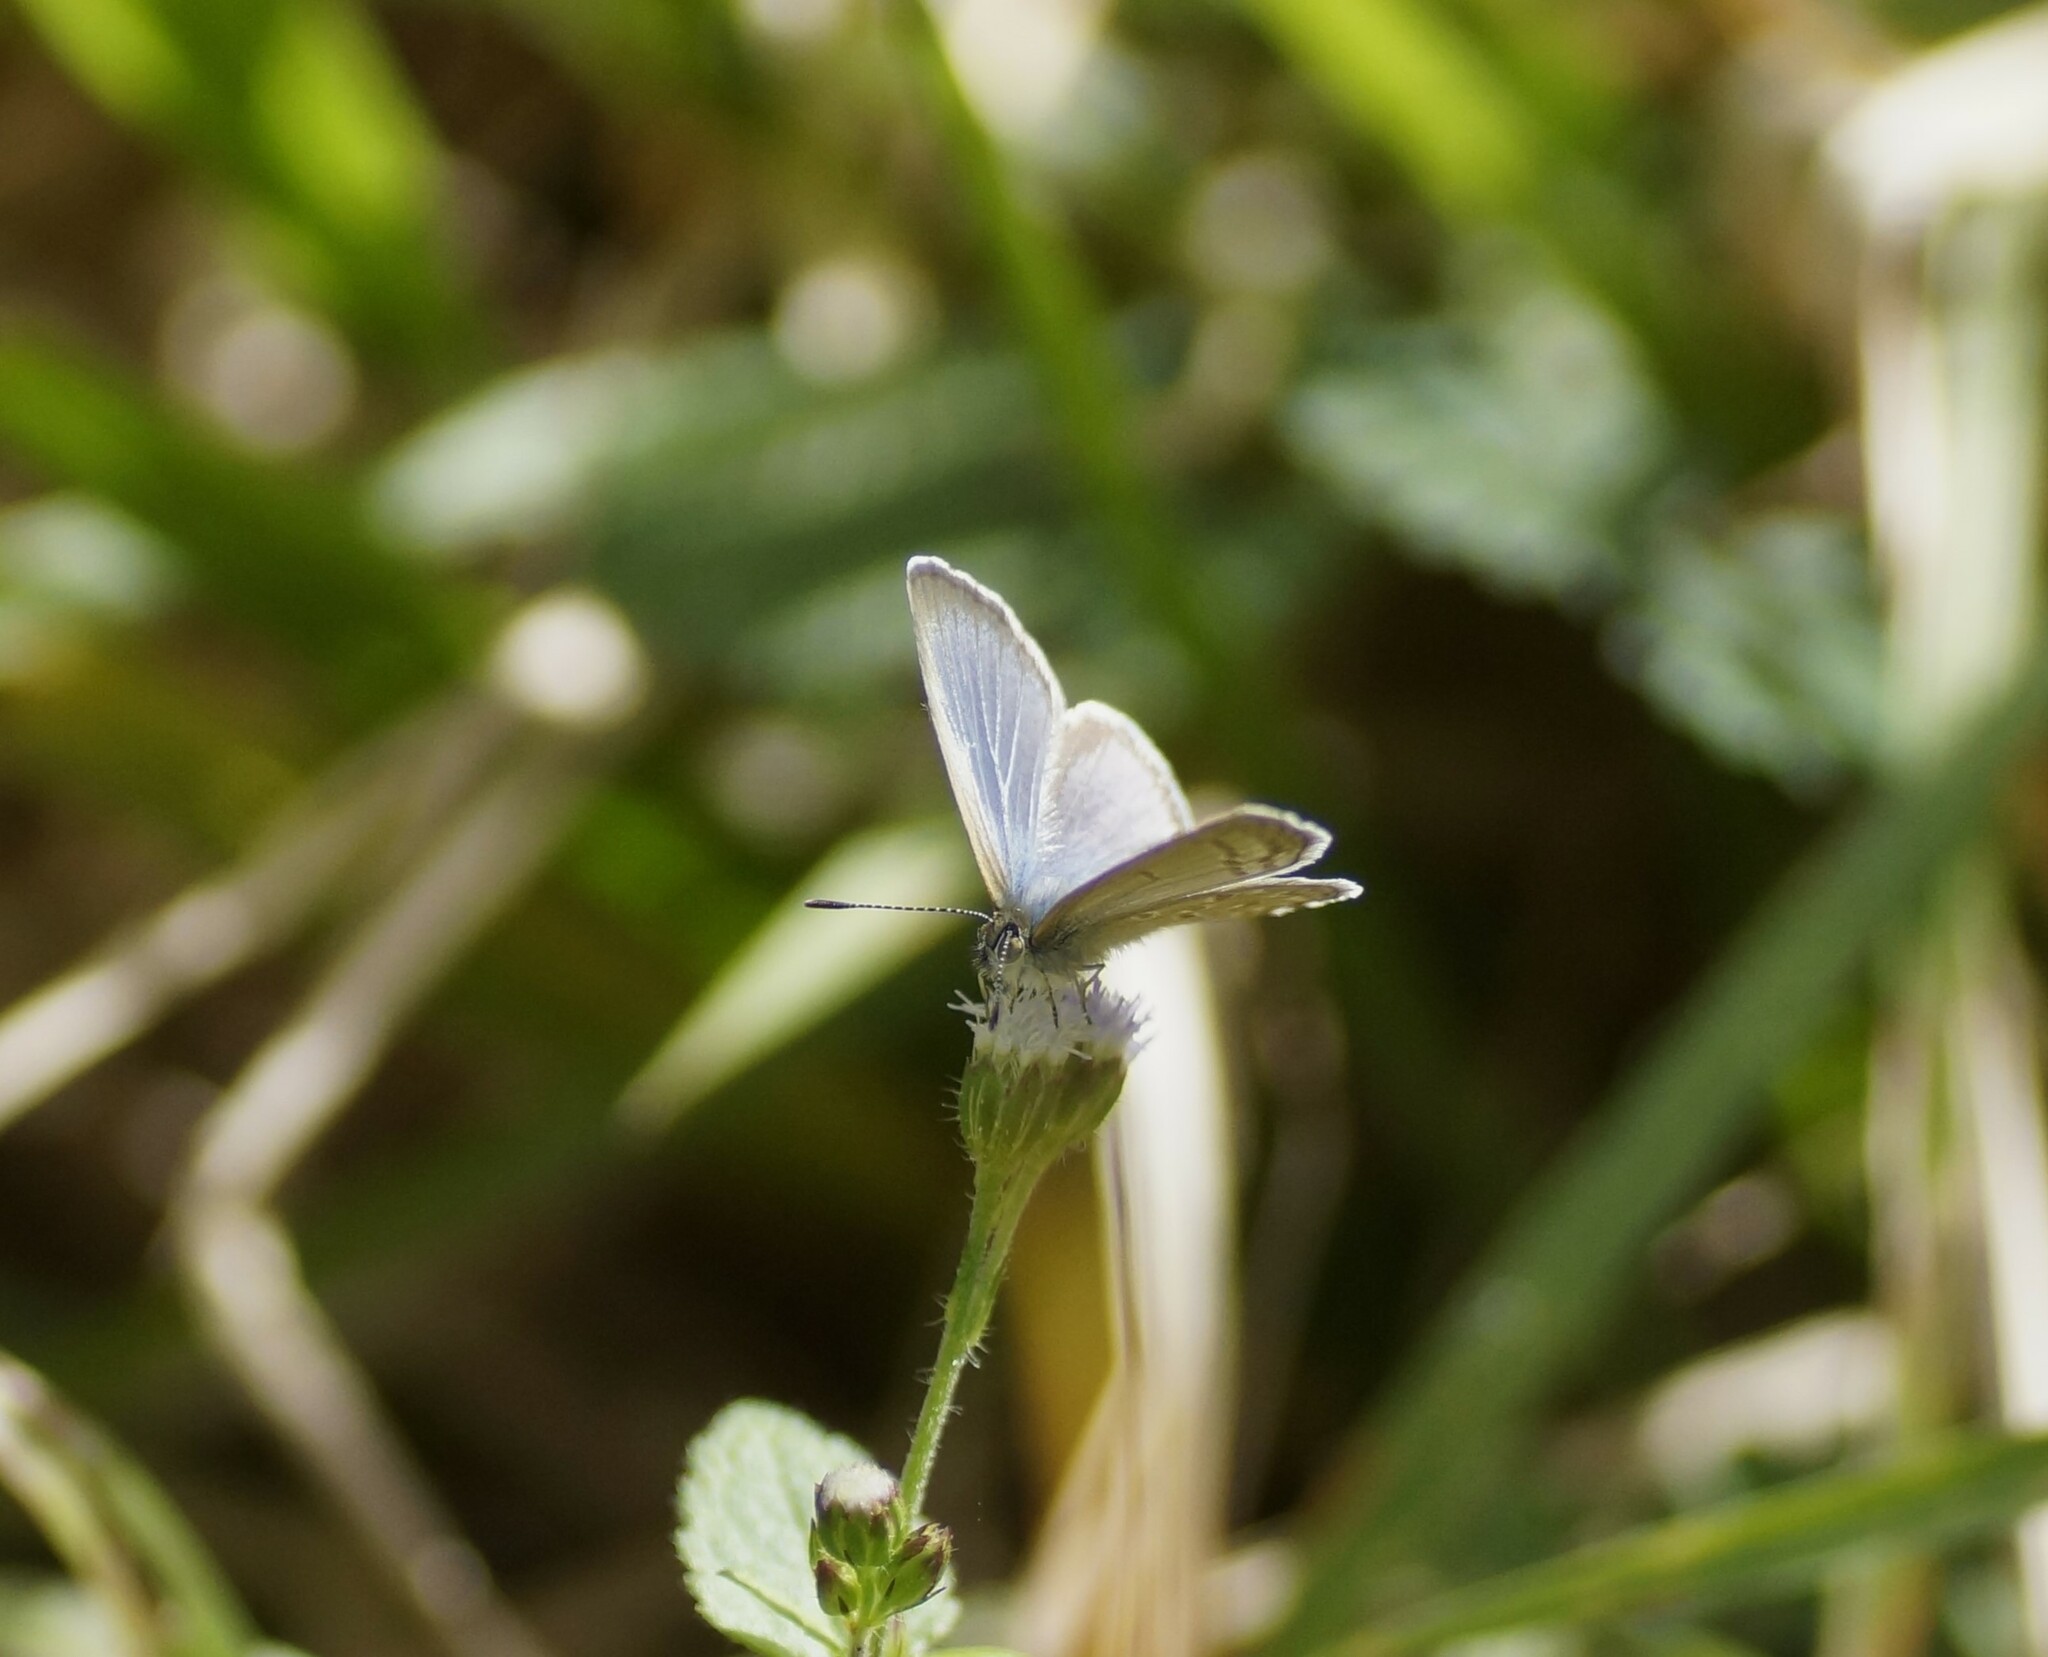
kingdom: Animalia
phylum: Arthropoda
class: Insecta
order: Lepidoptera
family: Lycaenidae
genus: Zizina
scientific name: Zizina labradus
